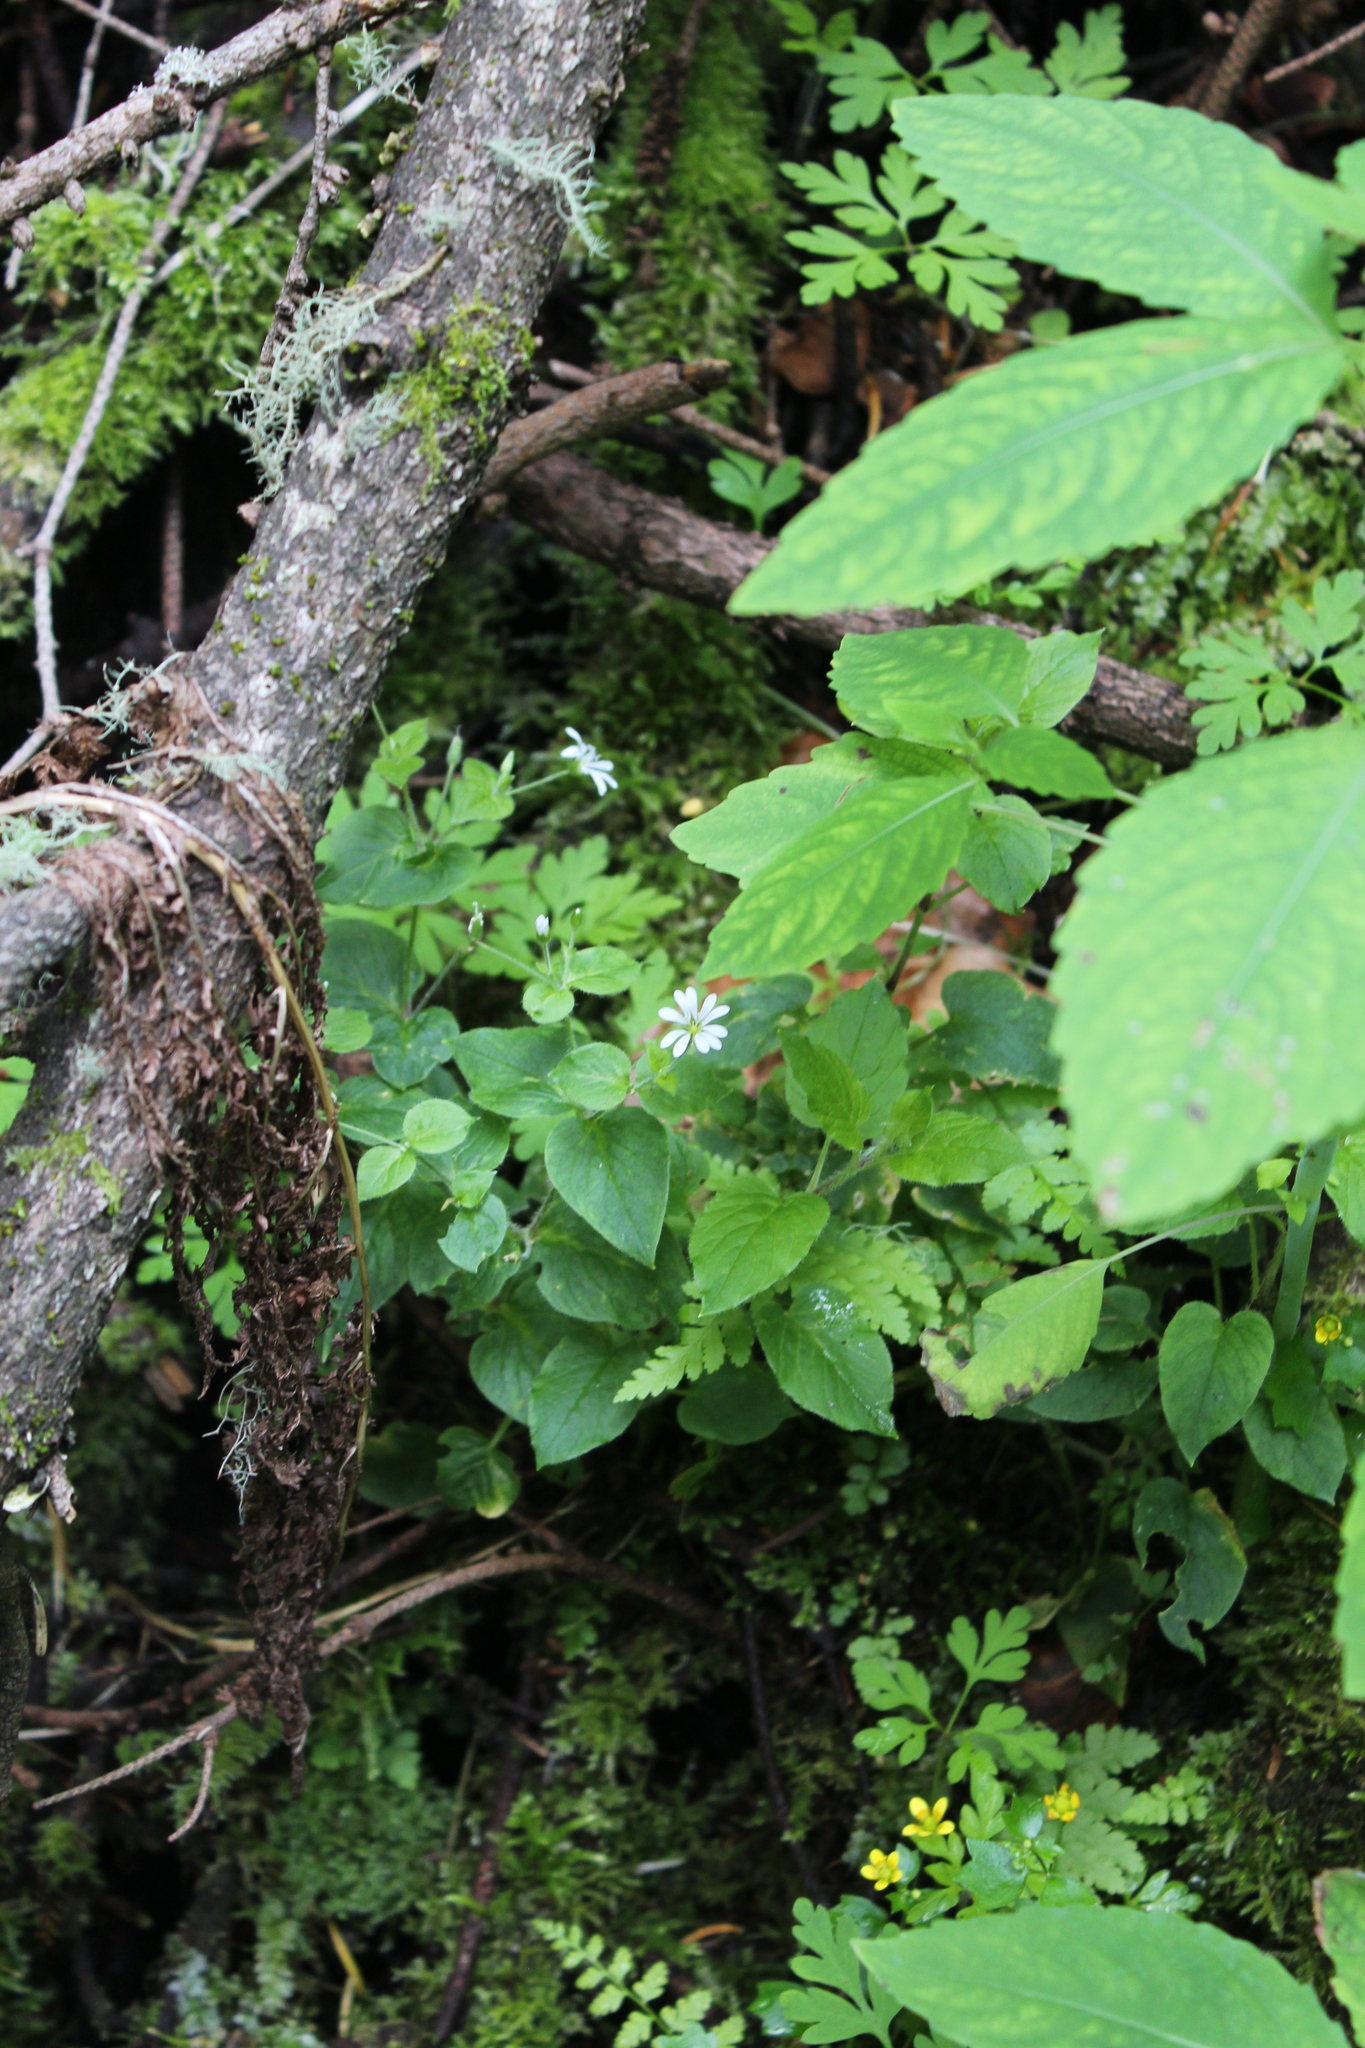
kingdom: Plantae
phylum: Tracheophyta
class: Magnoliopsida
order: Caryophyllales
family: Caryophyllaceae
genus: Stellaria
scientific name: Stellaria nemorum
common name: Wood stitchwort
